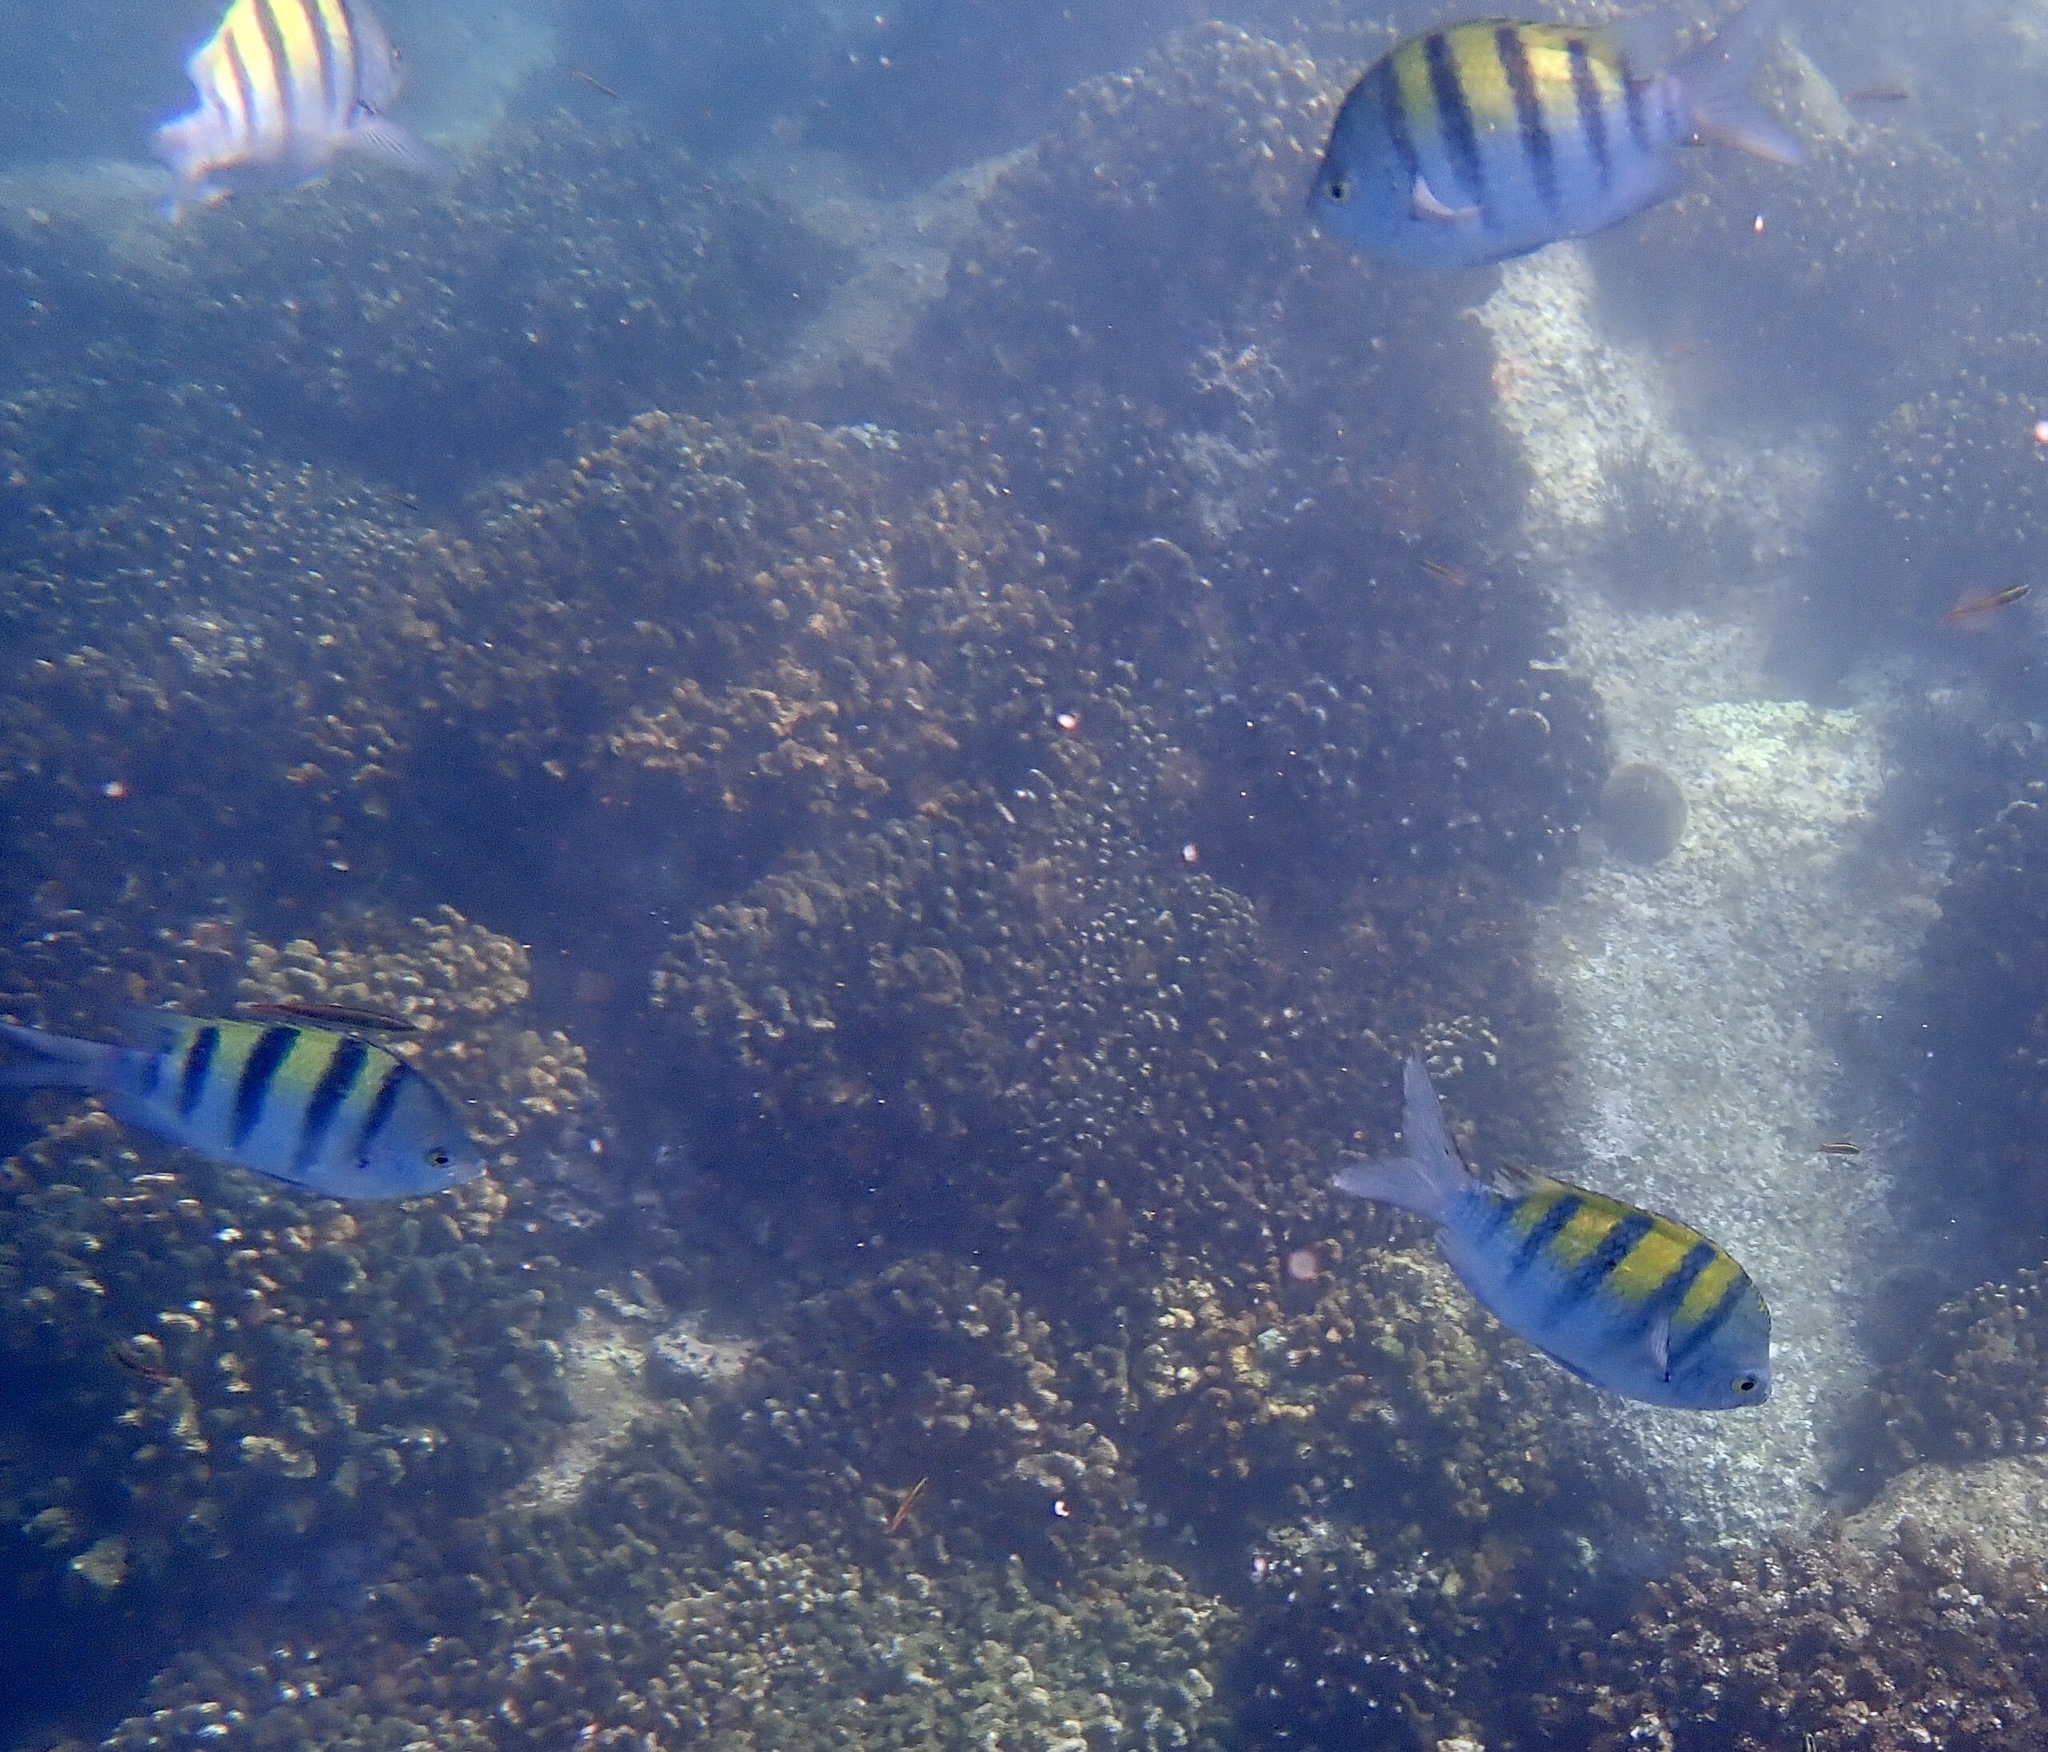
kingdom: Animalia
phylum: Chordata
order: Perciformes
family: Pomacentridae
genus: Abudefduf
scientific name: Abudefduf troschelii
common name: Panamic sergeant major
